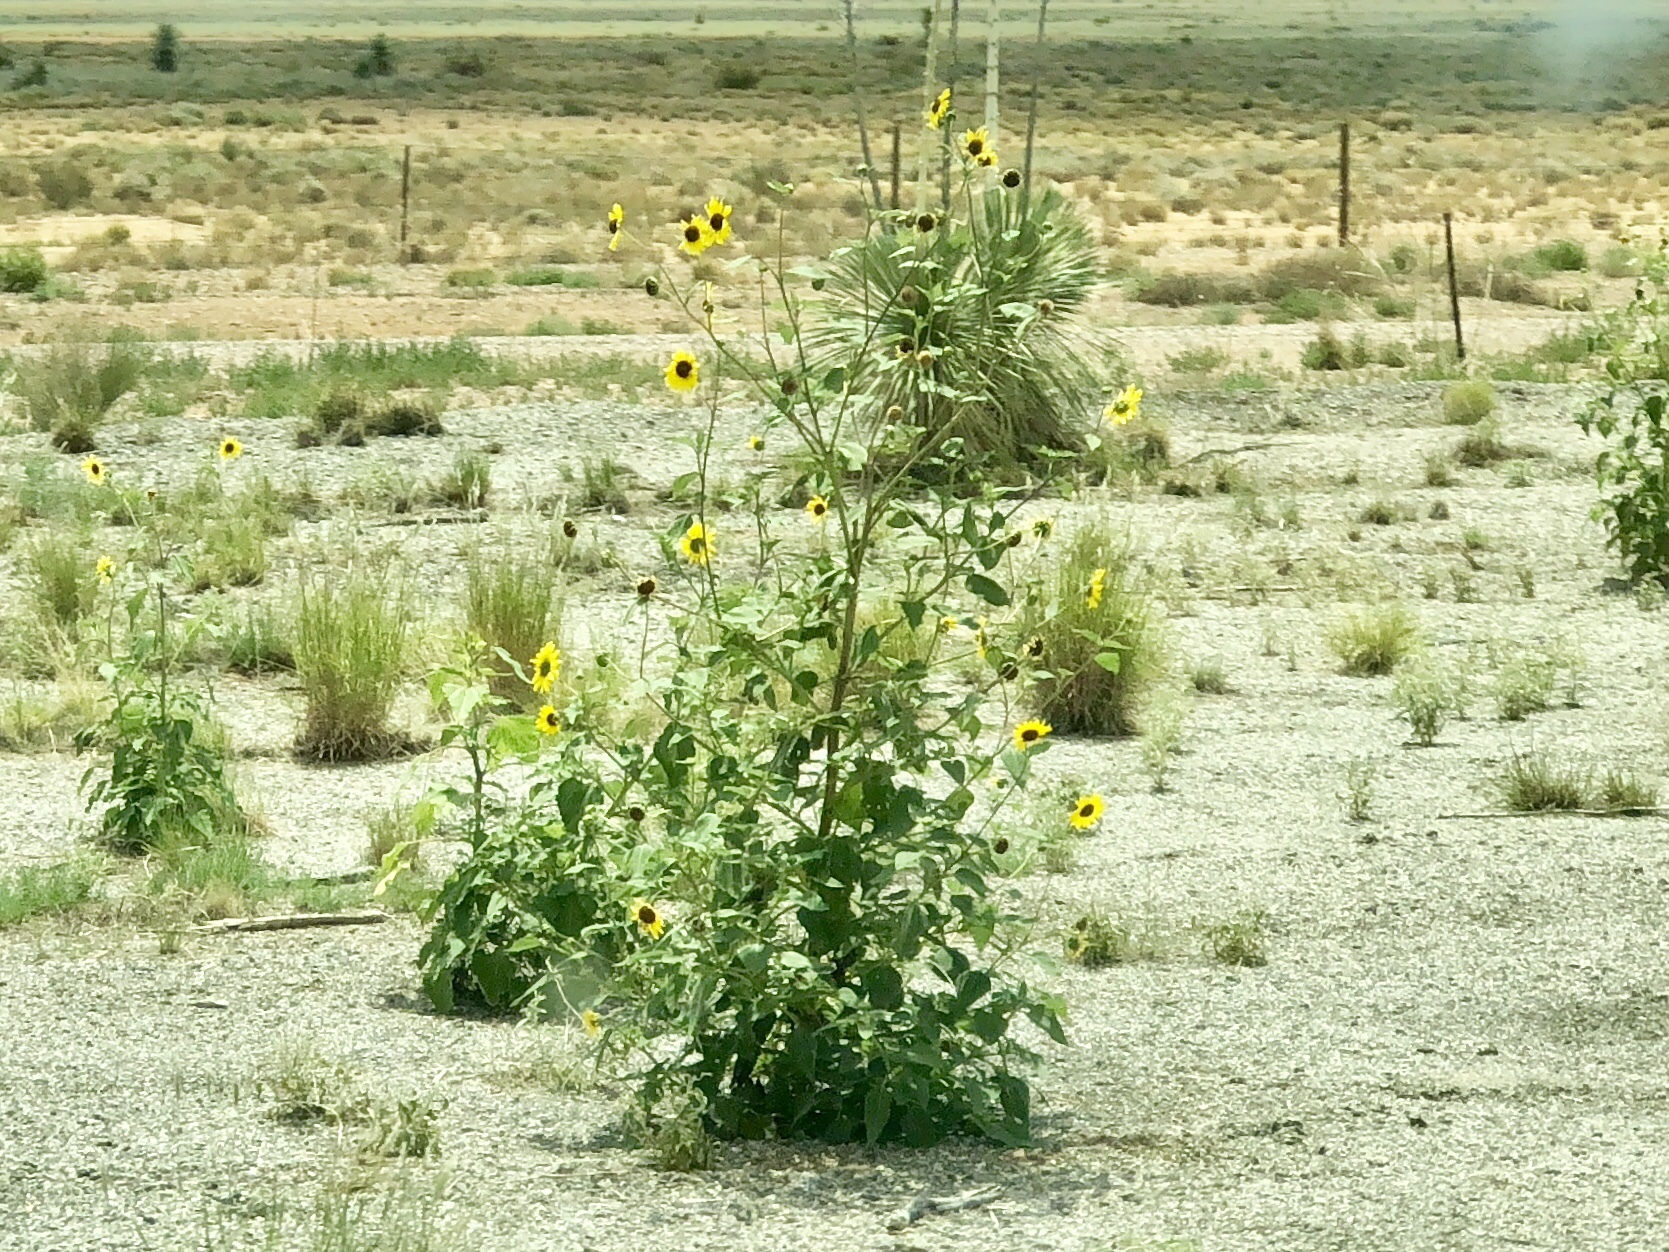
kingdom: Plantae
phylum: Tracheophyta
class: Magnoliopsida
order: Asterales
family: Asteraceae
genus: Helianthus
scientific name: Helianthus annuus
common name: Sunflower
